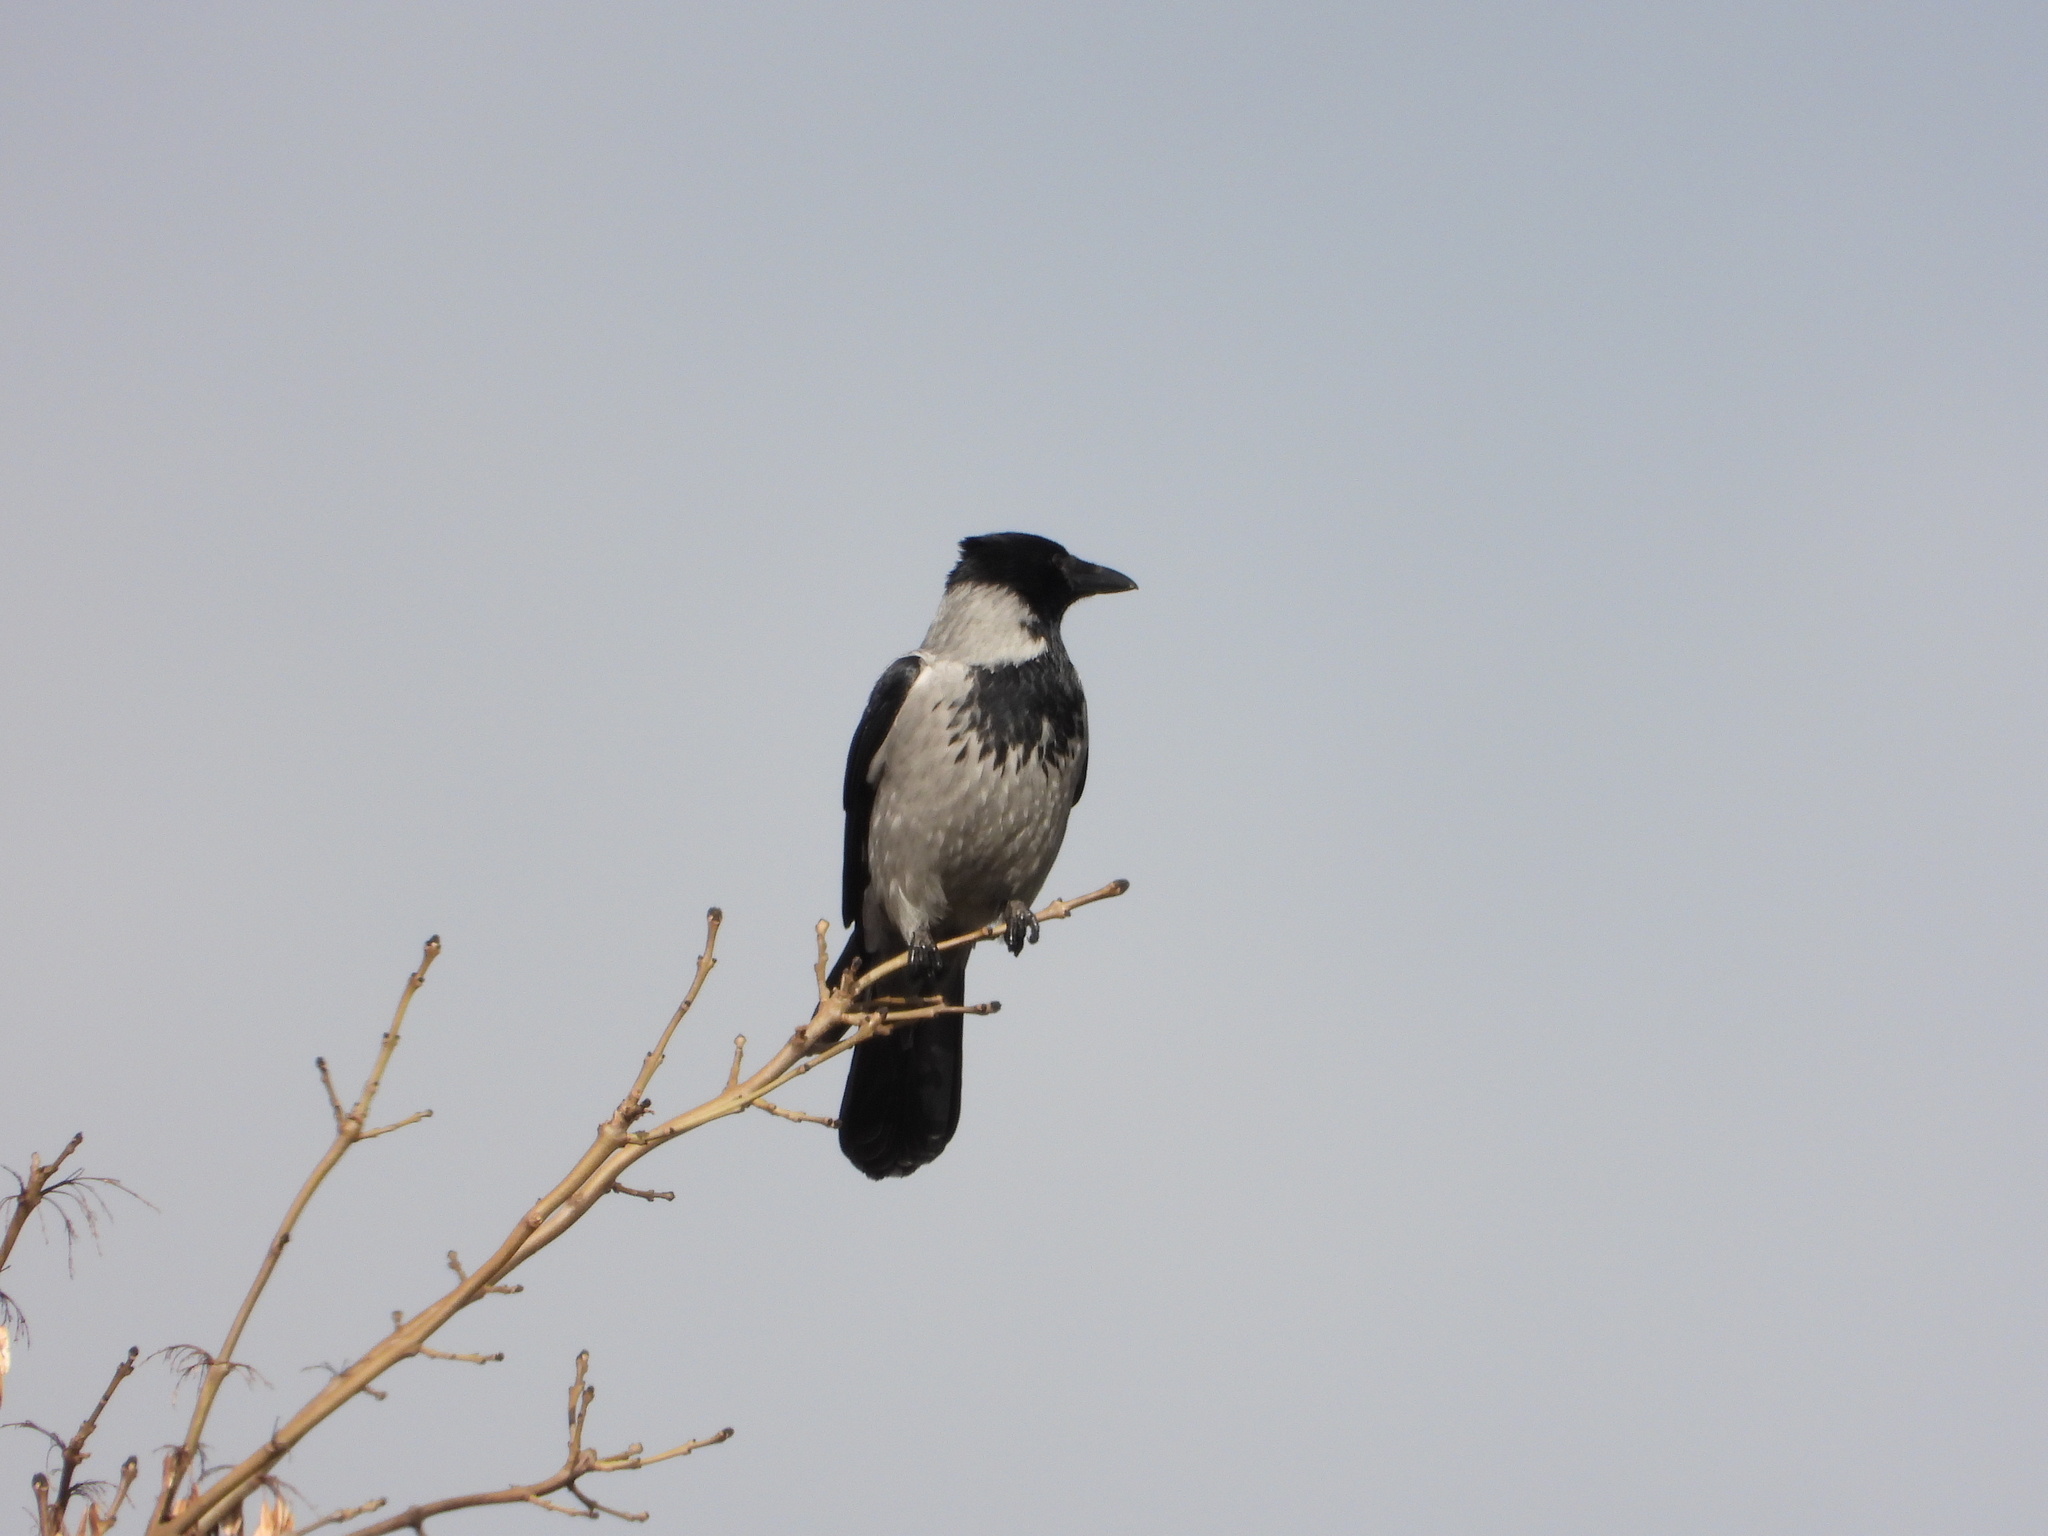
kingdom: Animalia
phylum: Chordata
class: Aves
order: Passeriformes
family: Corvidae
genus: Corvus
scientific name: Corvus cornix
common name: Hooded crow
